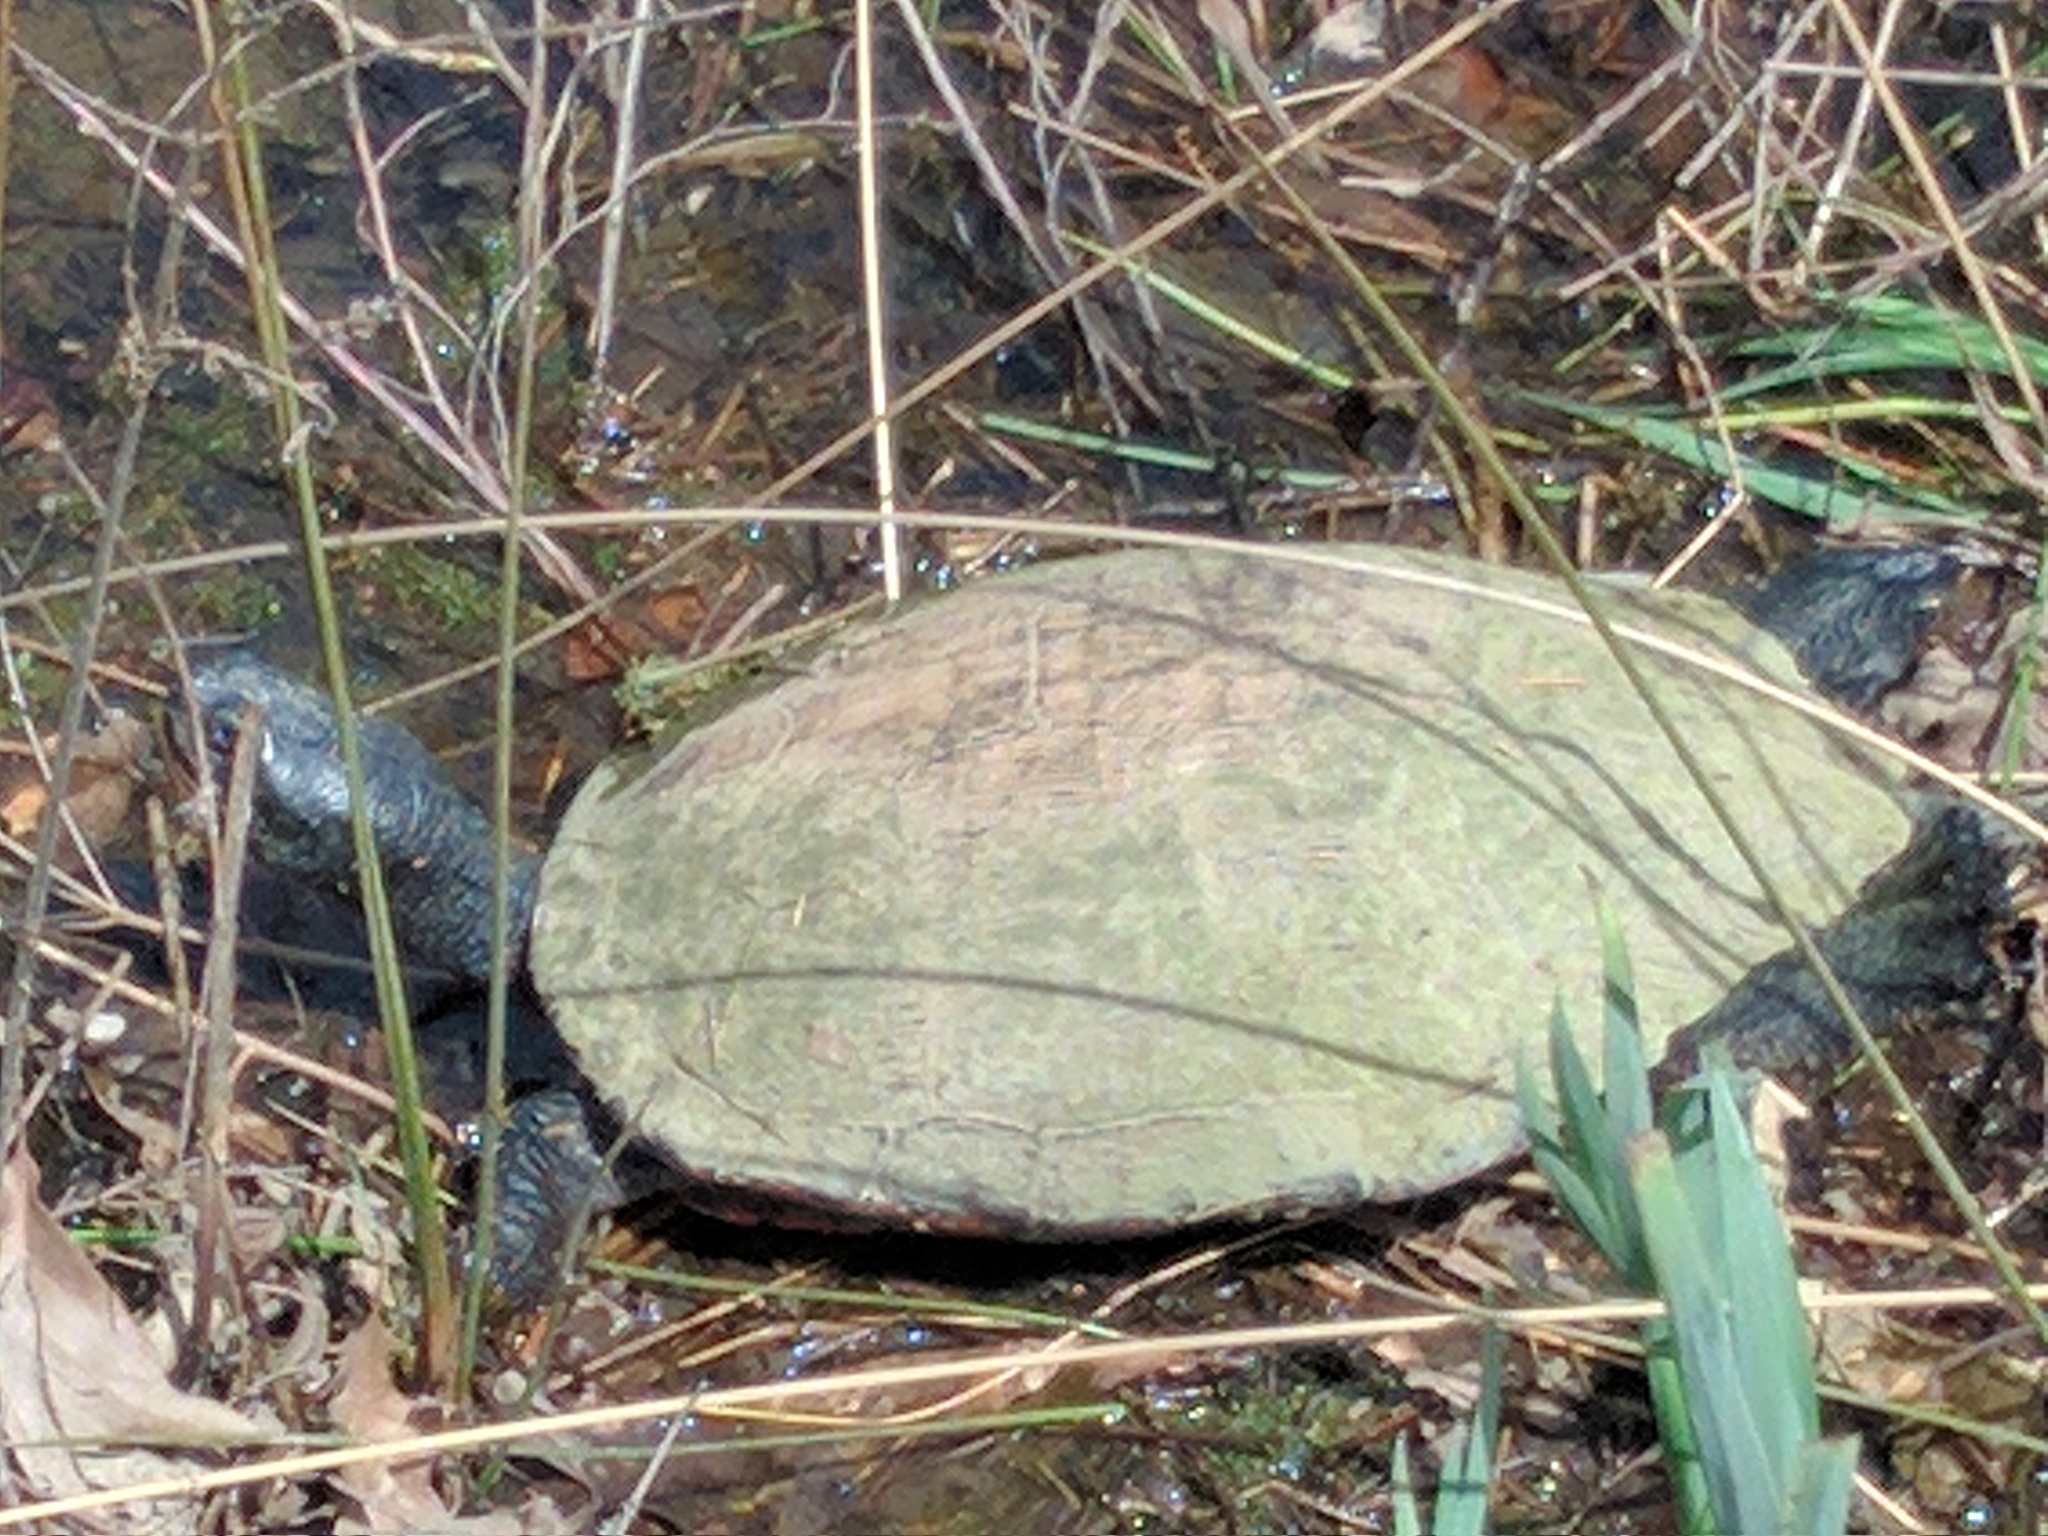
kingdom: Animalia
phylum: Chordata
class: Testudines
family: Emydidae
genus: Pseudemys
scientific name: Pseudemys rubriventris
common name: American red-bellied turtle
